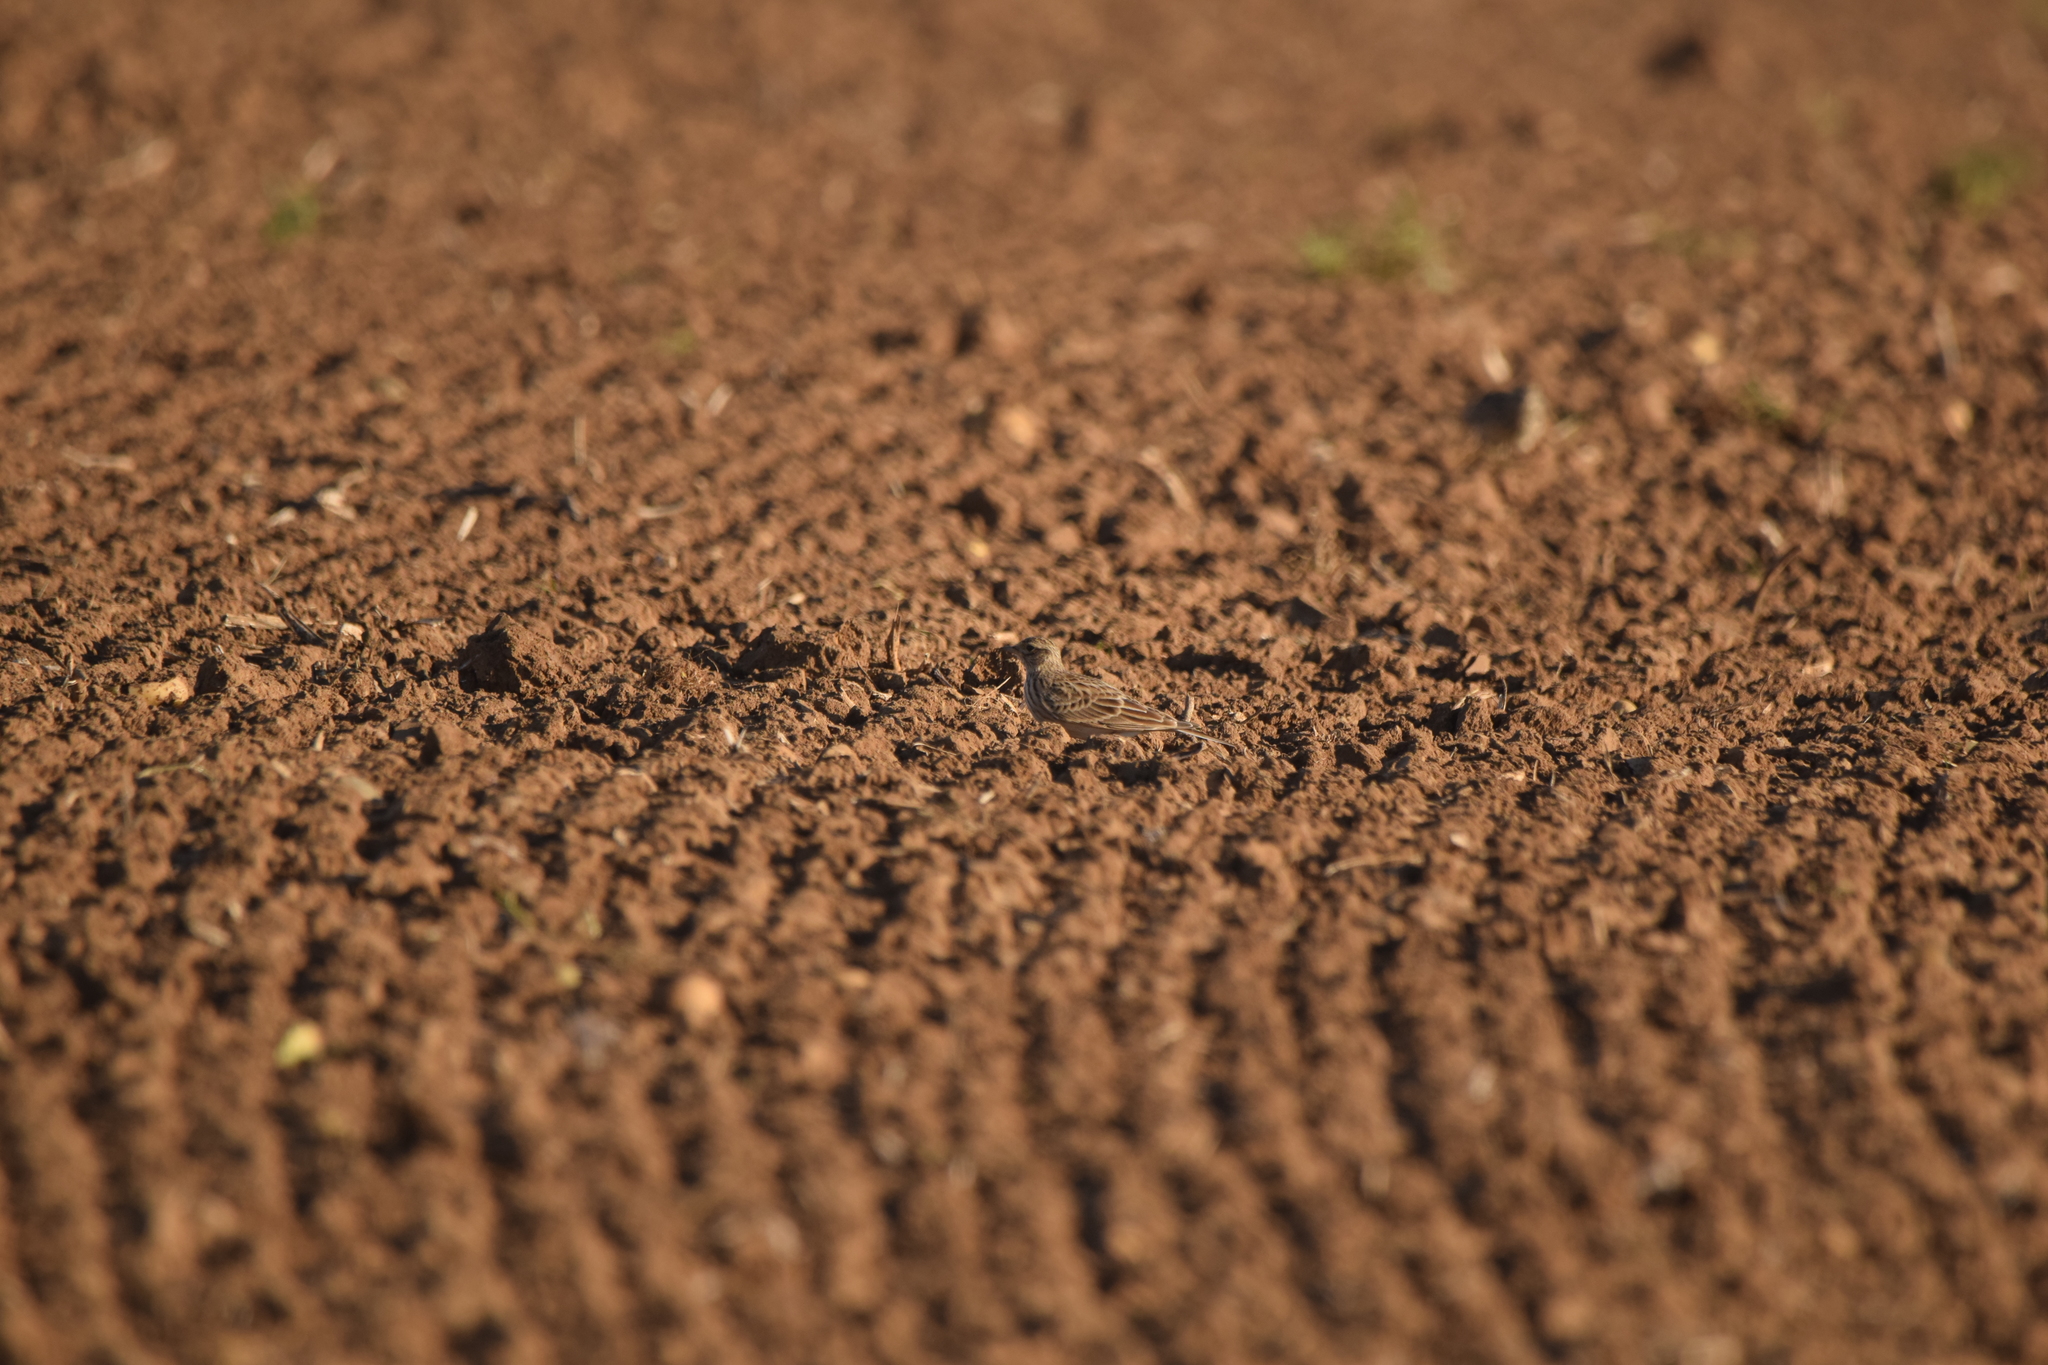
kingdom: Animalia
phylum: Chordata
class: Aves
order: Passeriformes
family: Alaudidae
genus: Alauda
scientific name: Alauda arvensis
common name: Eurasian skylark
